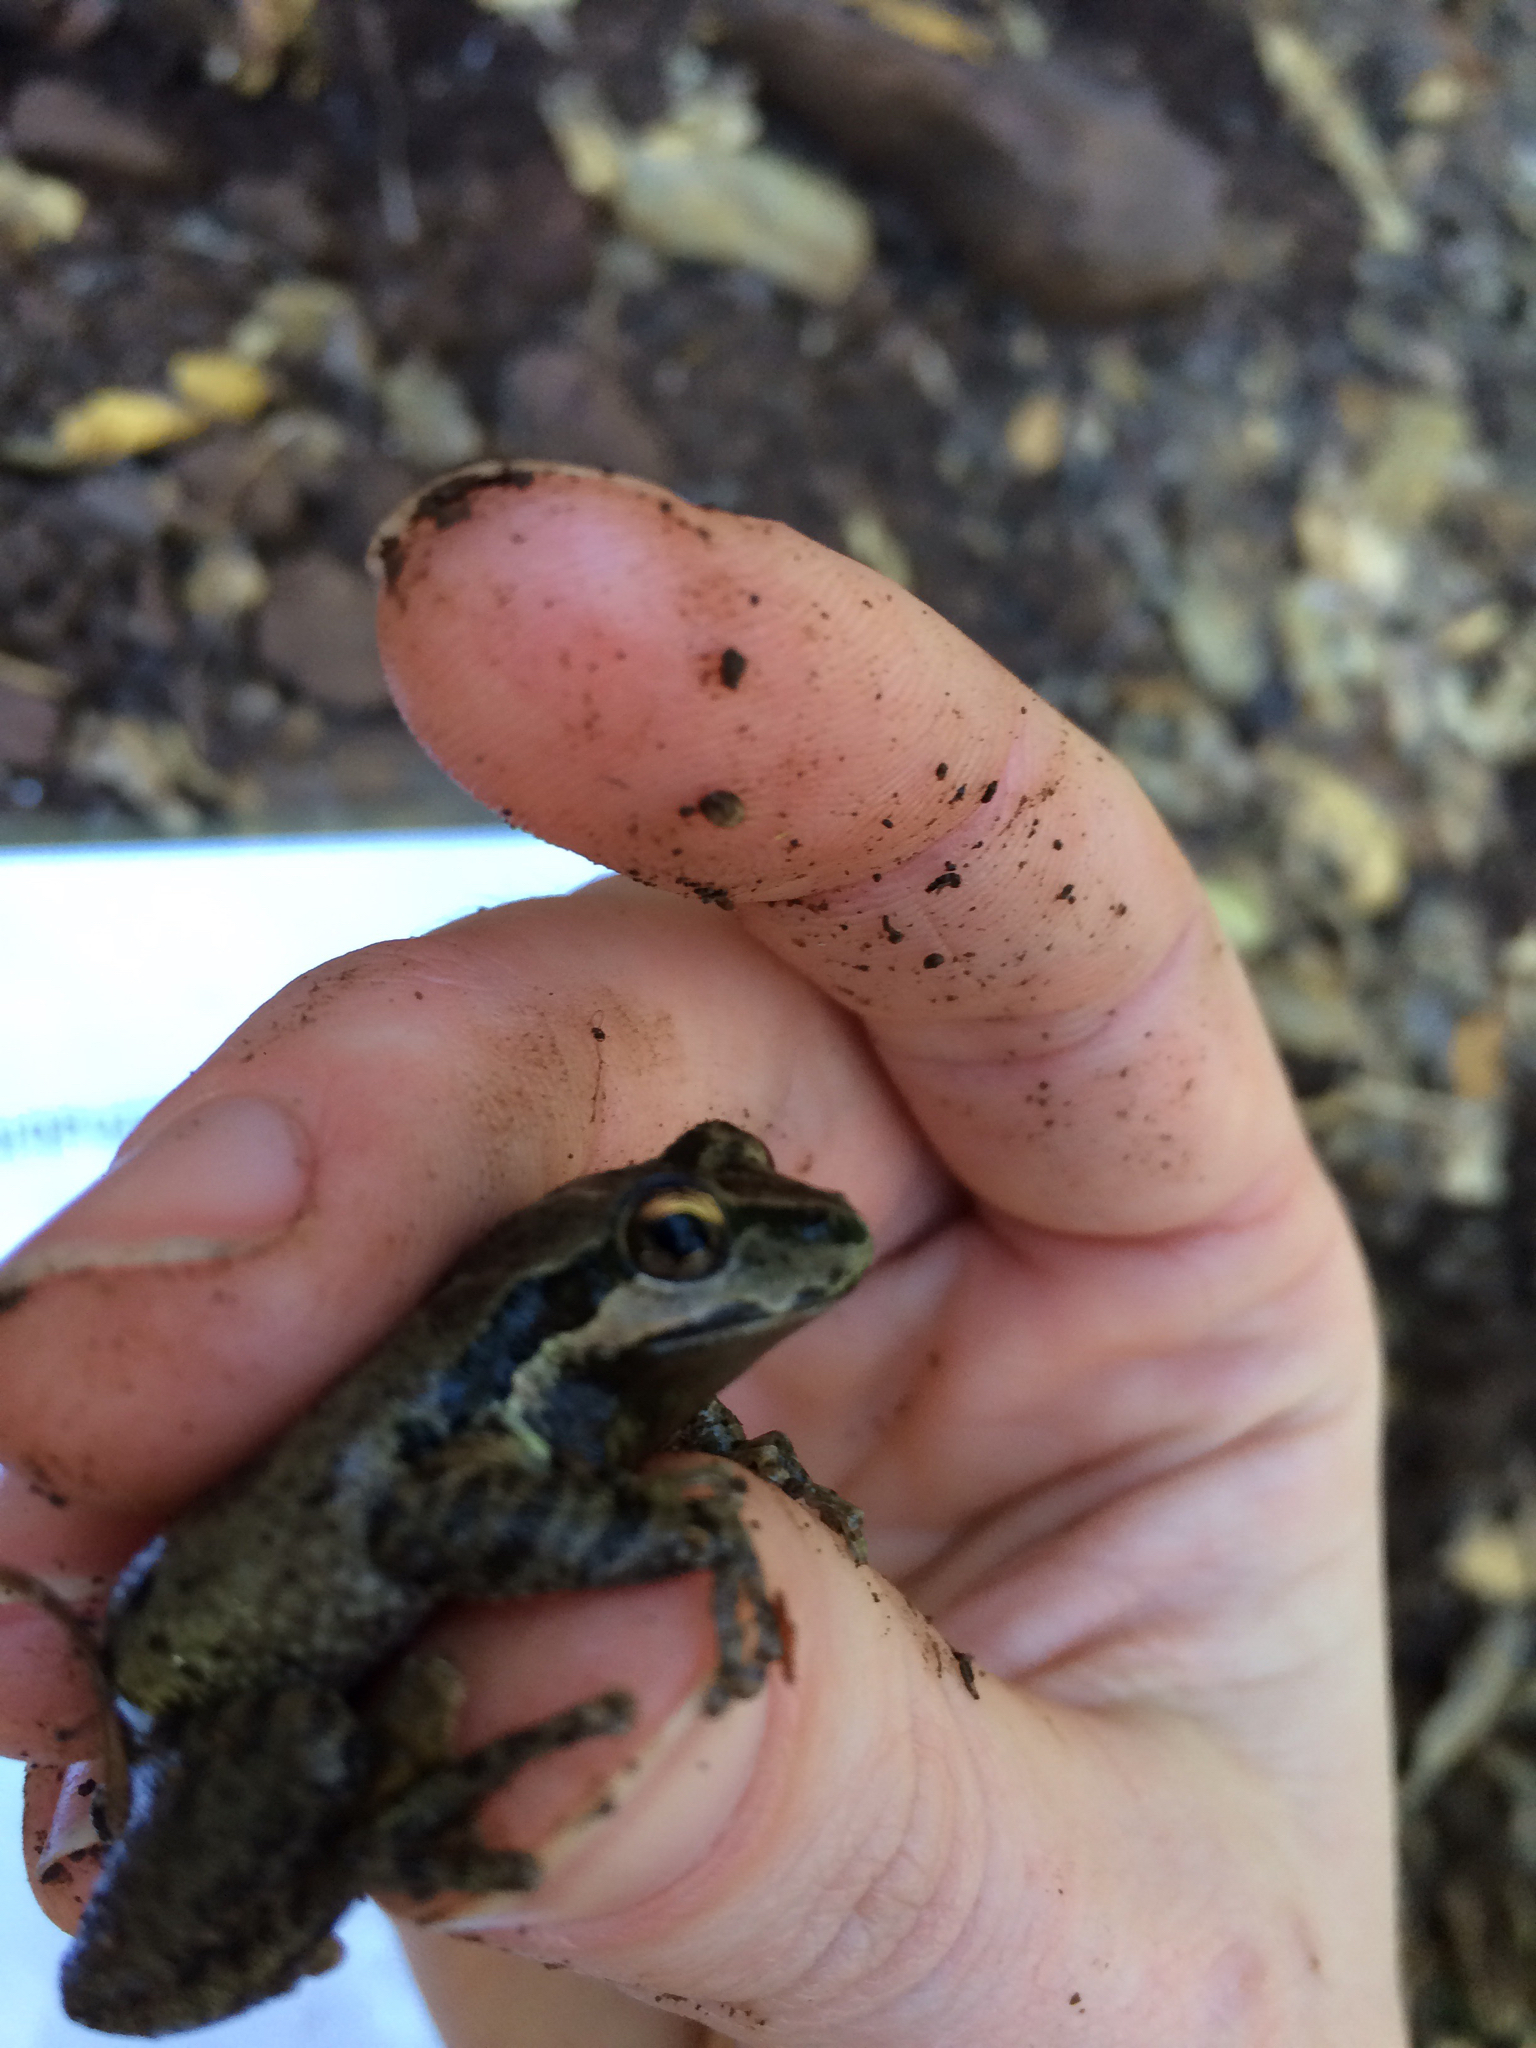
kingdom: Animalia
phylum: Chordata
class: Amphibia
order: Anura
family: Hylidae
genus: Pseudacris
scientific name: Pseudacris regilla
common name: Pacific chorus frog
